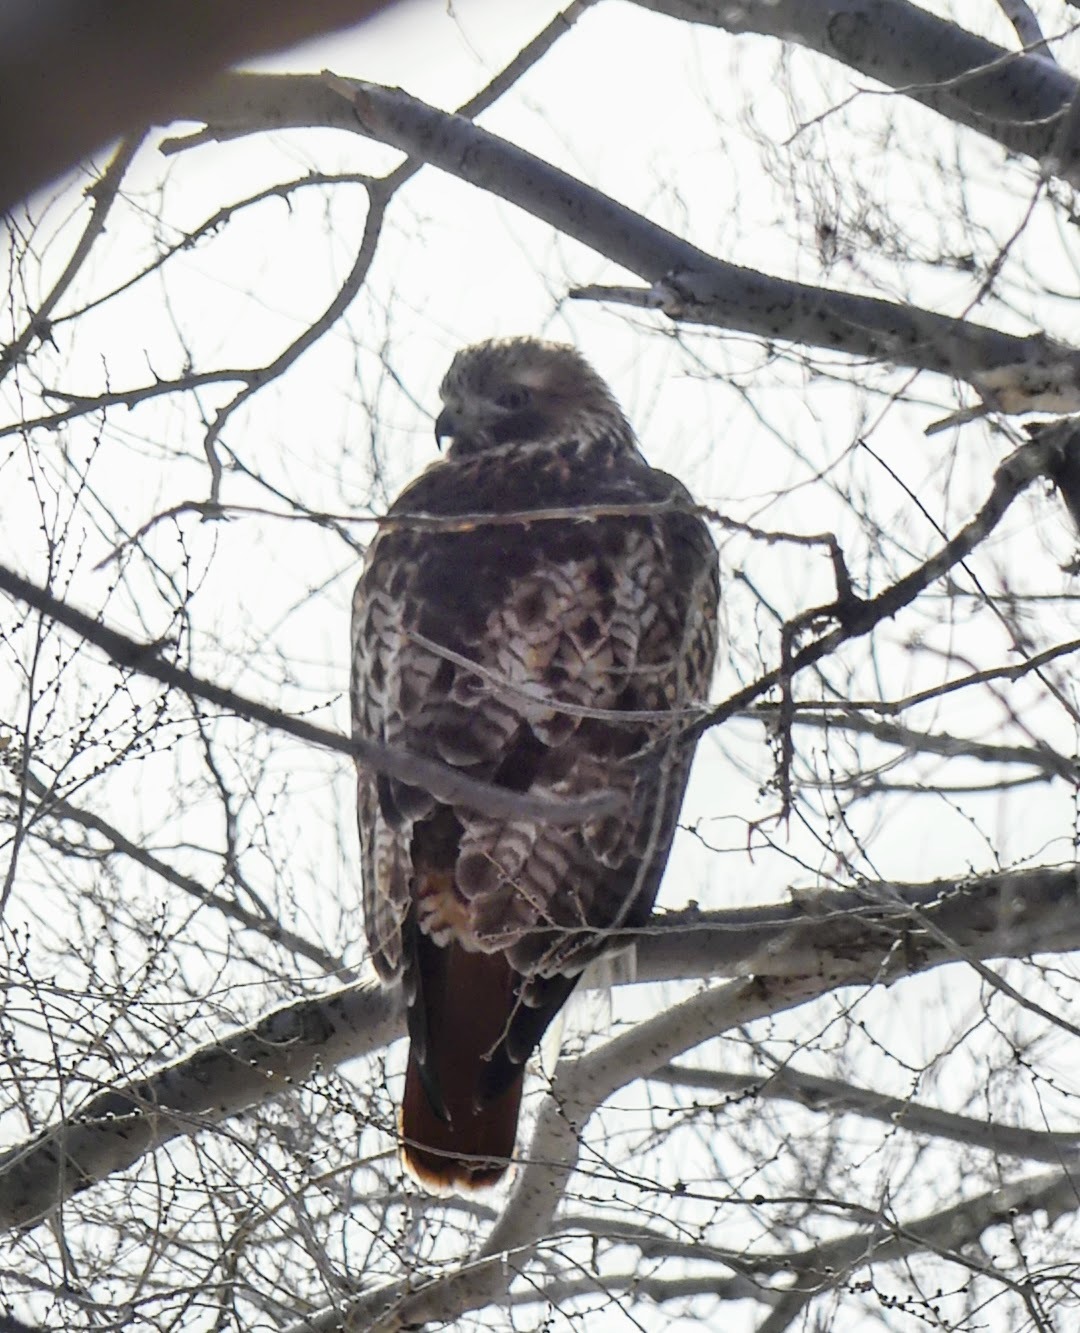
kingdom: Animalia
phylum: Chordata
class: Aves
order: Accipitriformes
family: Accipitridae
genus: Buteo
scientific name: Buteo jamaicensis
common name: Red-tailed hawk
